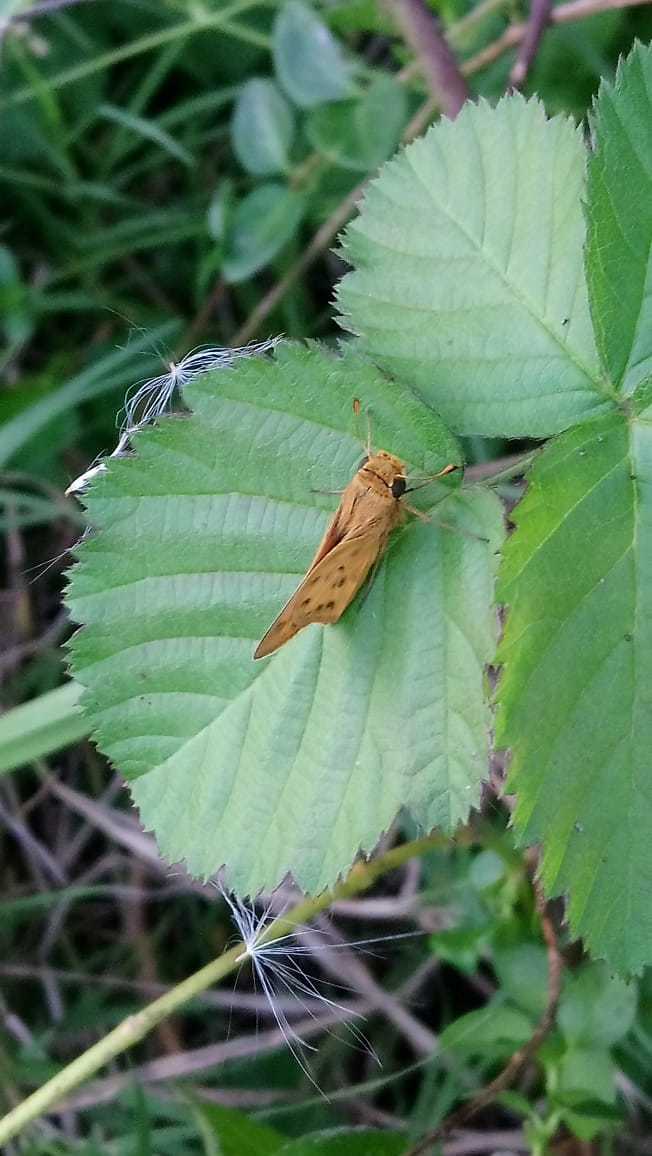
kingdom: Animalia
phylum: Arthropoda
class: Insecta
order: Lepidoptera
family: Hesperiidae
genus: Hylephila
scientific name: Hylephila phyleus
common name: Fiery skipper
